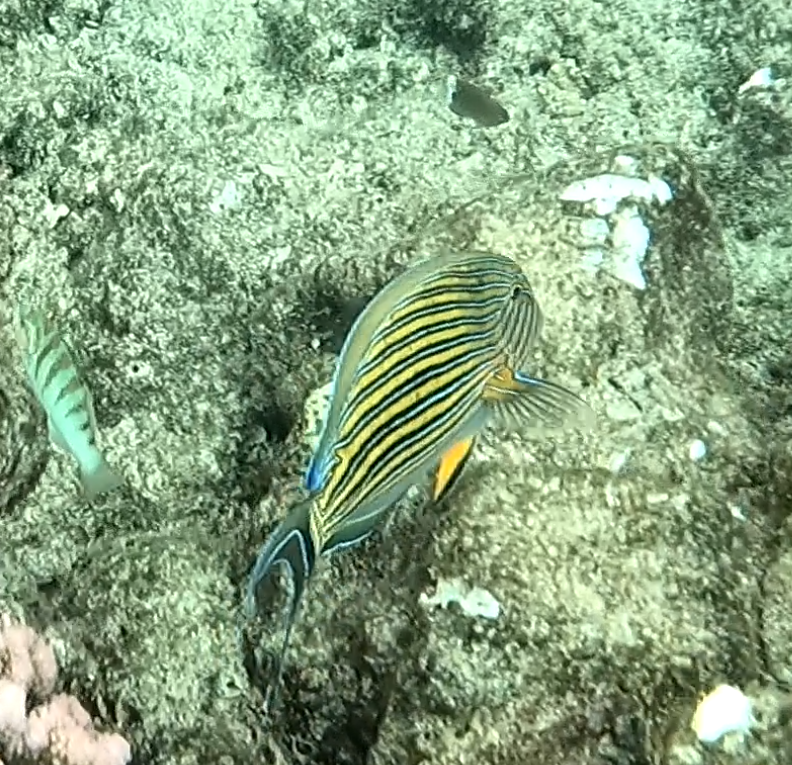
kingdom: Animalia
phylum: Chordata
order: Perciformes
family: Acanthuridae
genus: Acanthurus
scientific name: Acanthurus lineatus
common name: Striped surgeonfish
